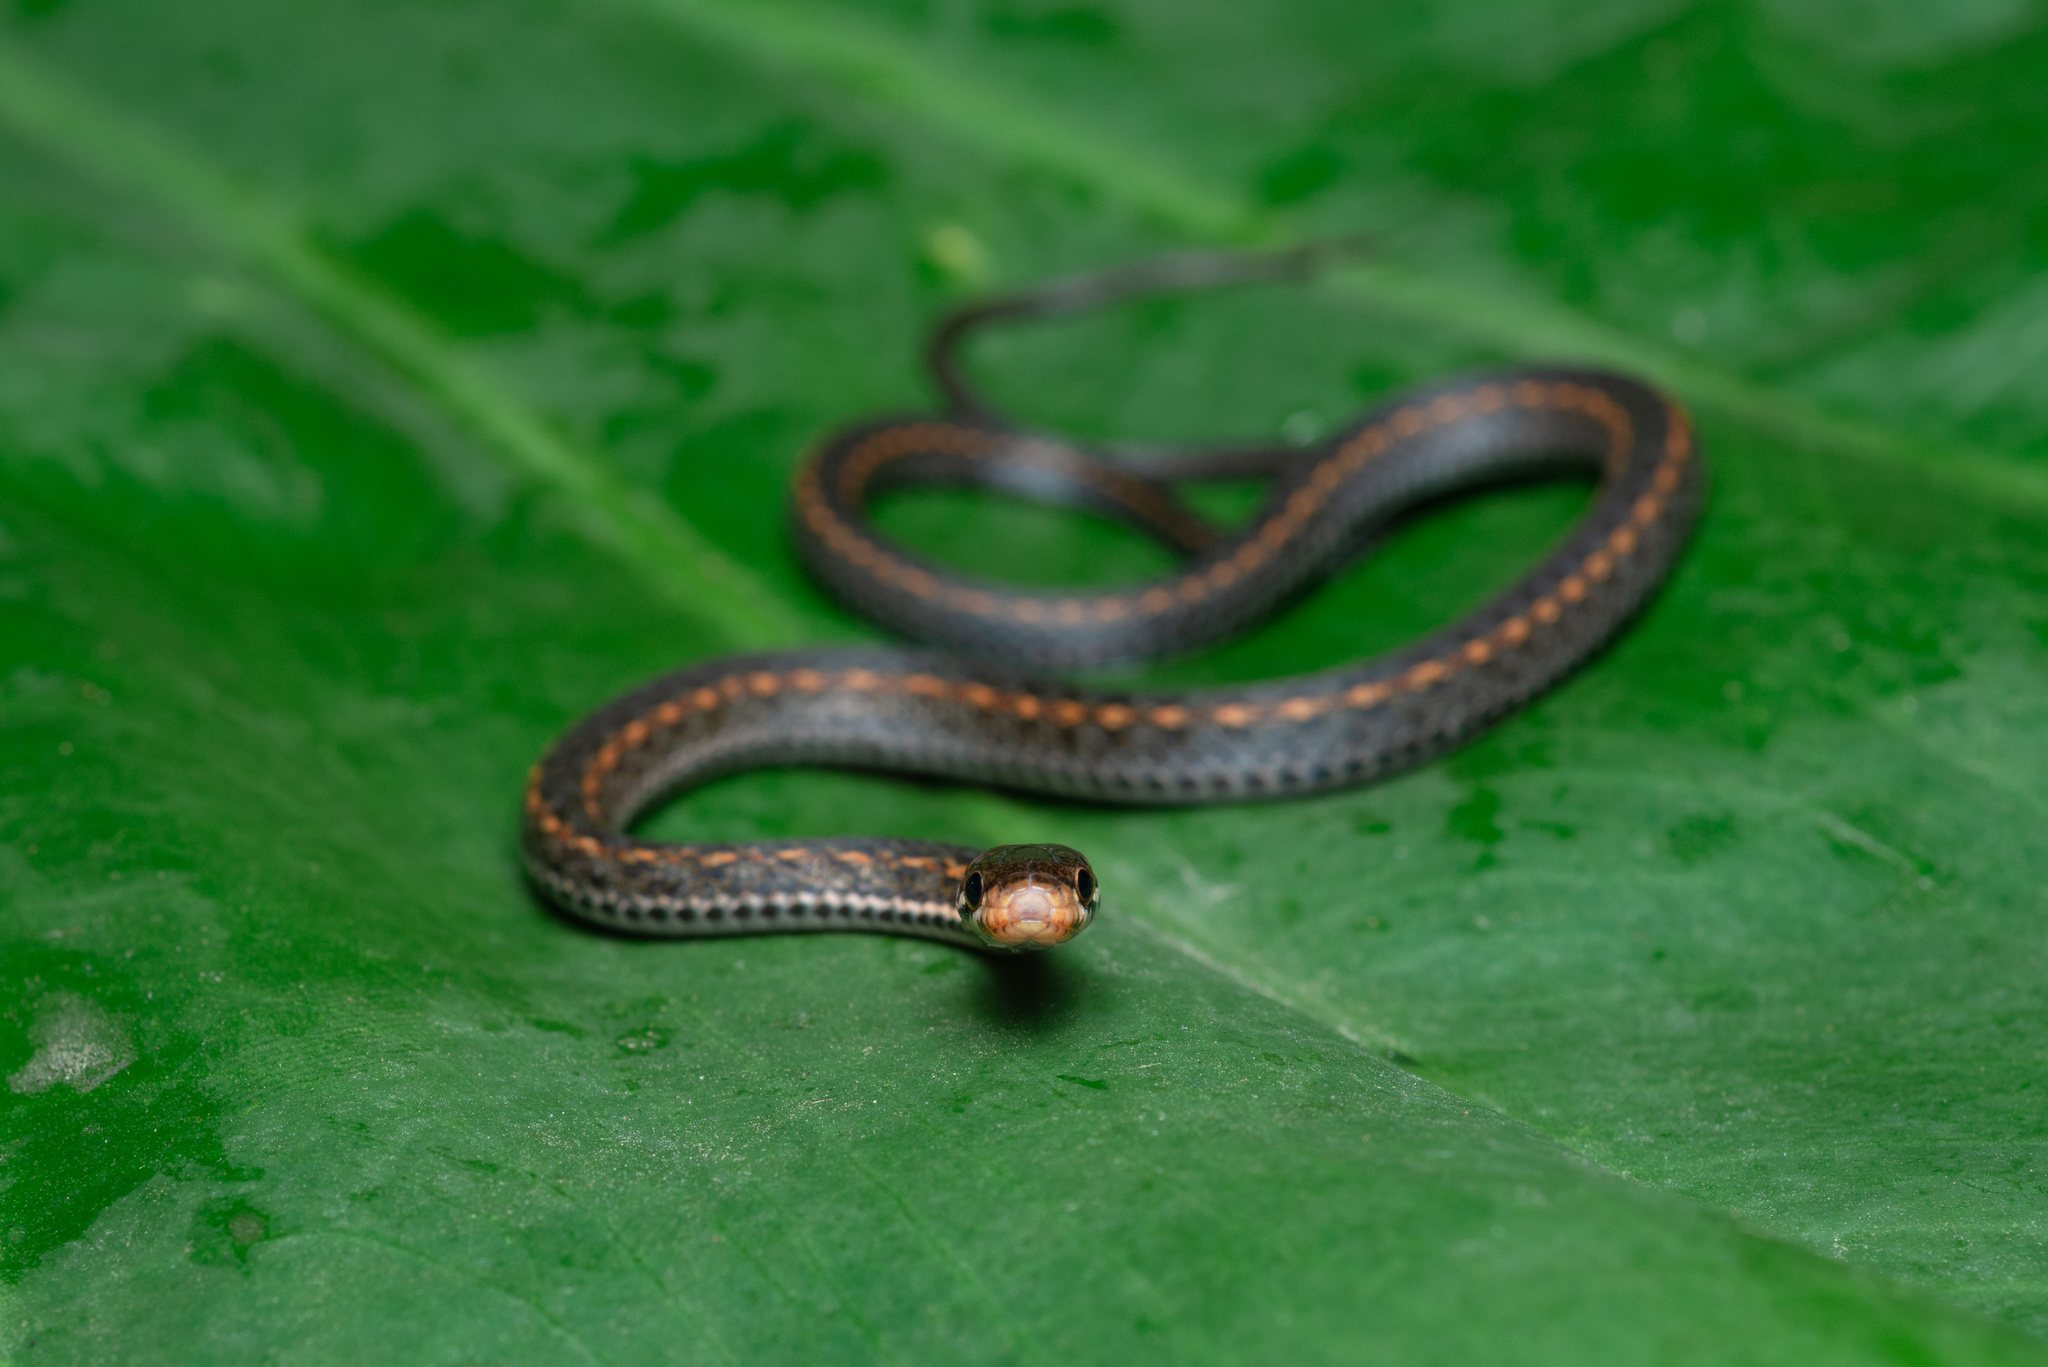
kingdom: Animalia
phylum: Chordata
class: Squamata
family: Colubridae
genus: Hebius
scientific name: Hebius boulengeri
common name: Boulenger's keelback
